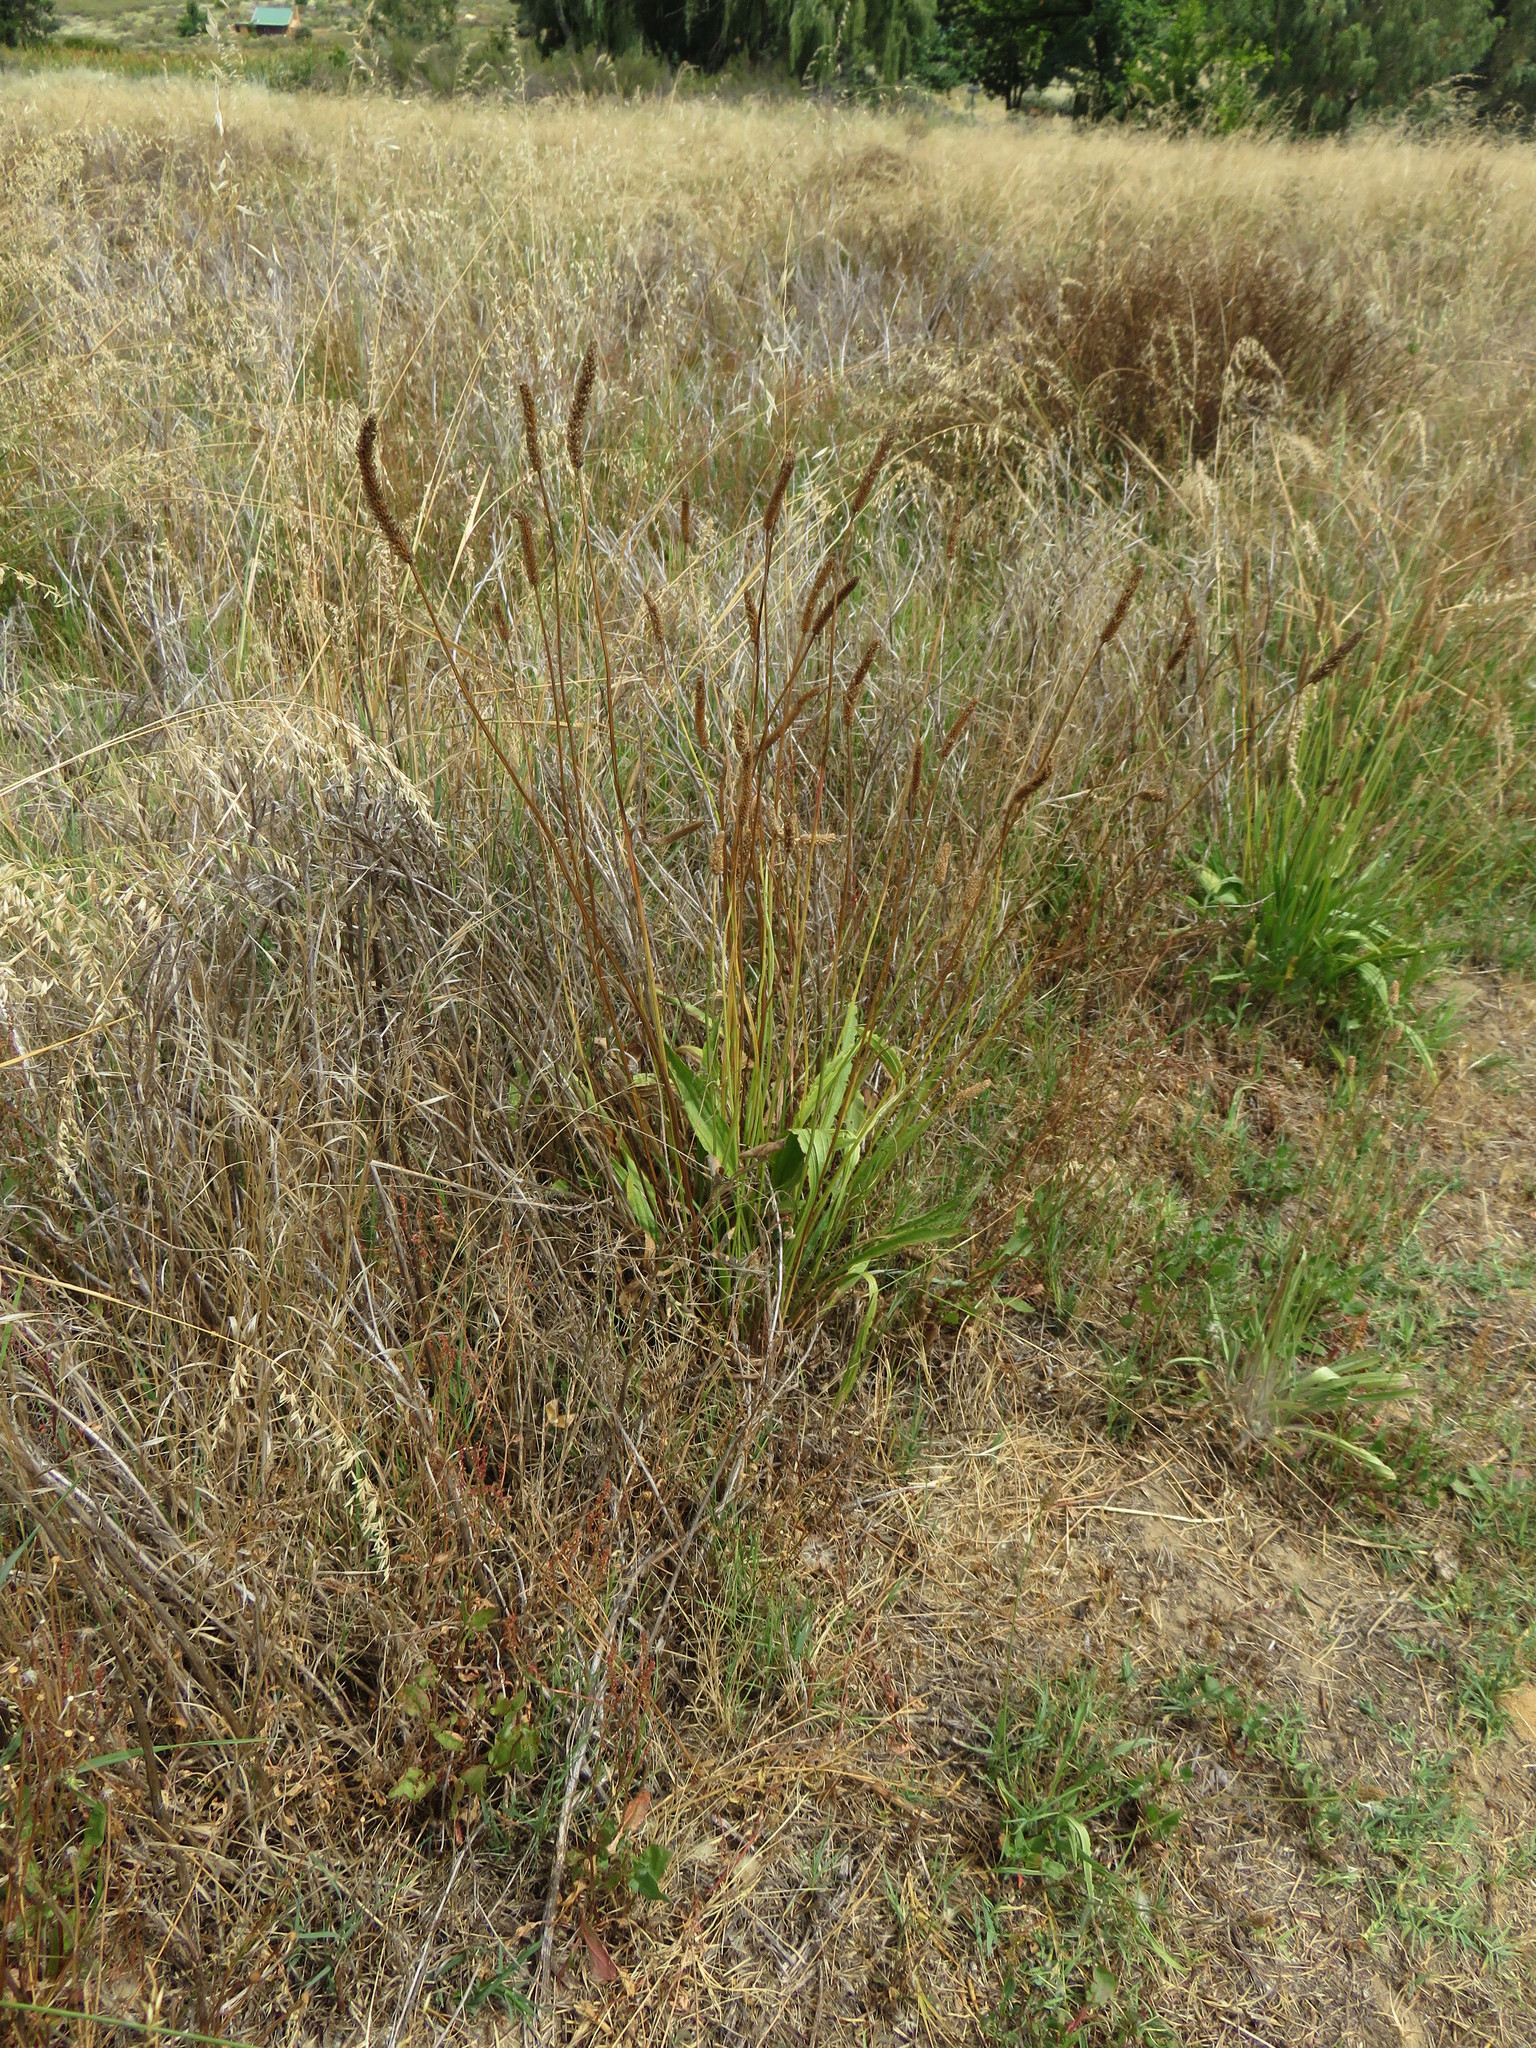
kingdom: Plantae
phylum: Tracheophyta
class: Magnoliopsida
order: Lamiales
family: Plantaginaceae
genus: Plantago
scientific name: Plantago lanceolata
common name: Ribwort plantain
